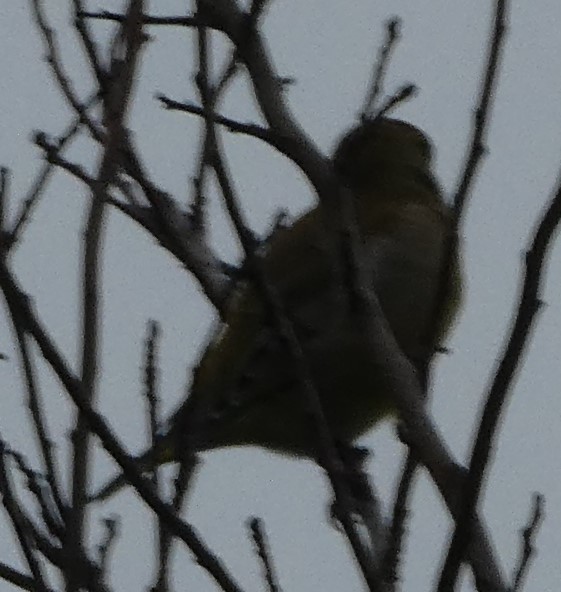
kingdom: Plantae
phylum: Tracheophyta
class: Liliopsida
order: Poales
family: Poaceae
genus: Chloris
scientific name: Chloris chloris
